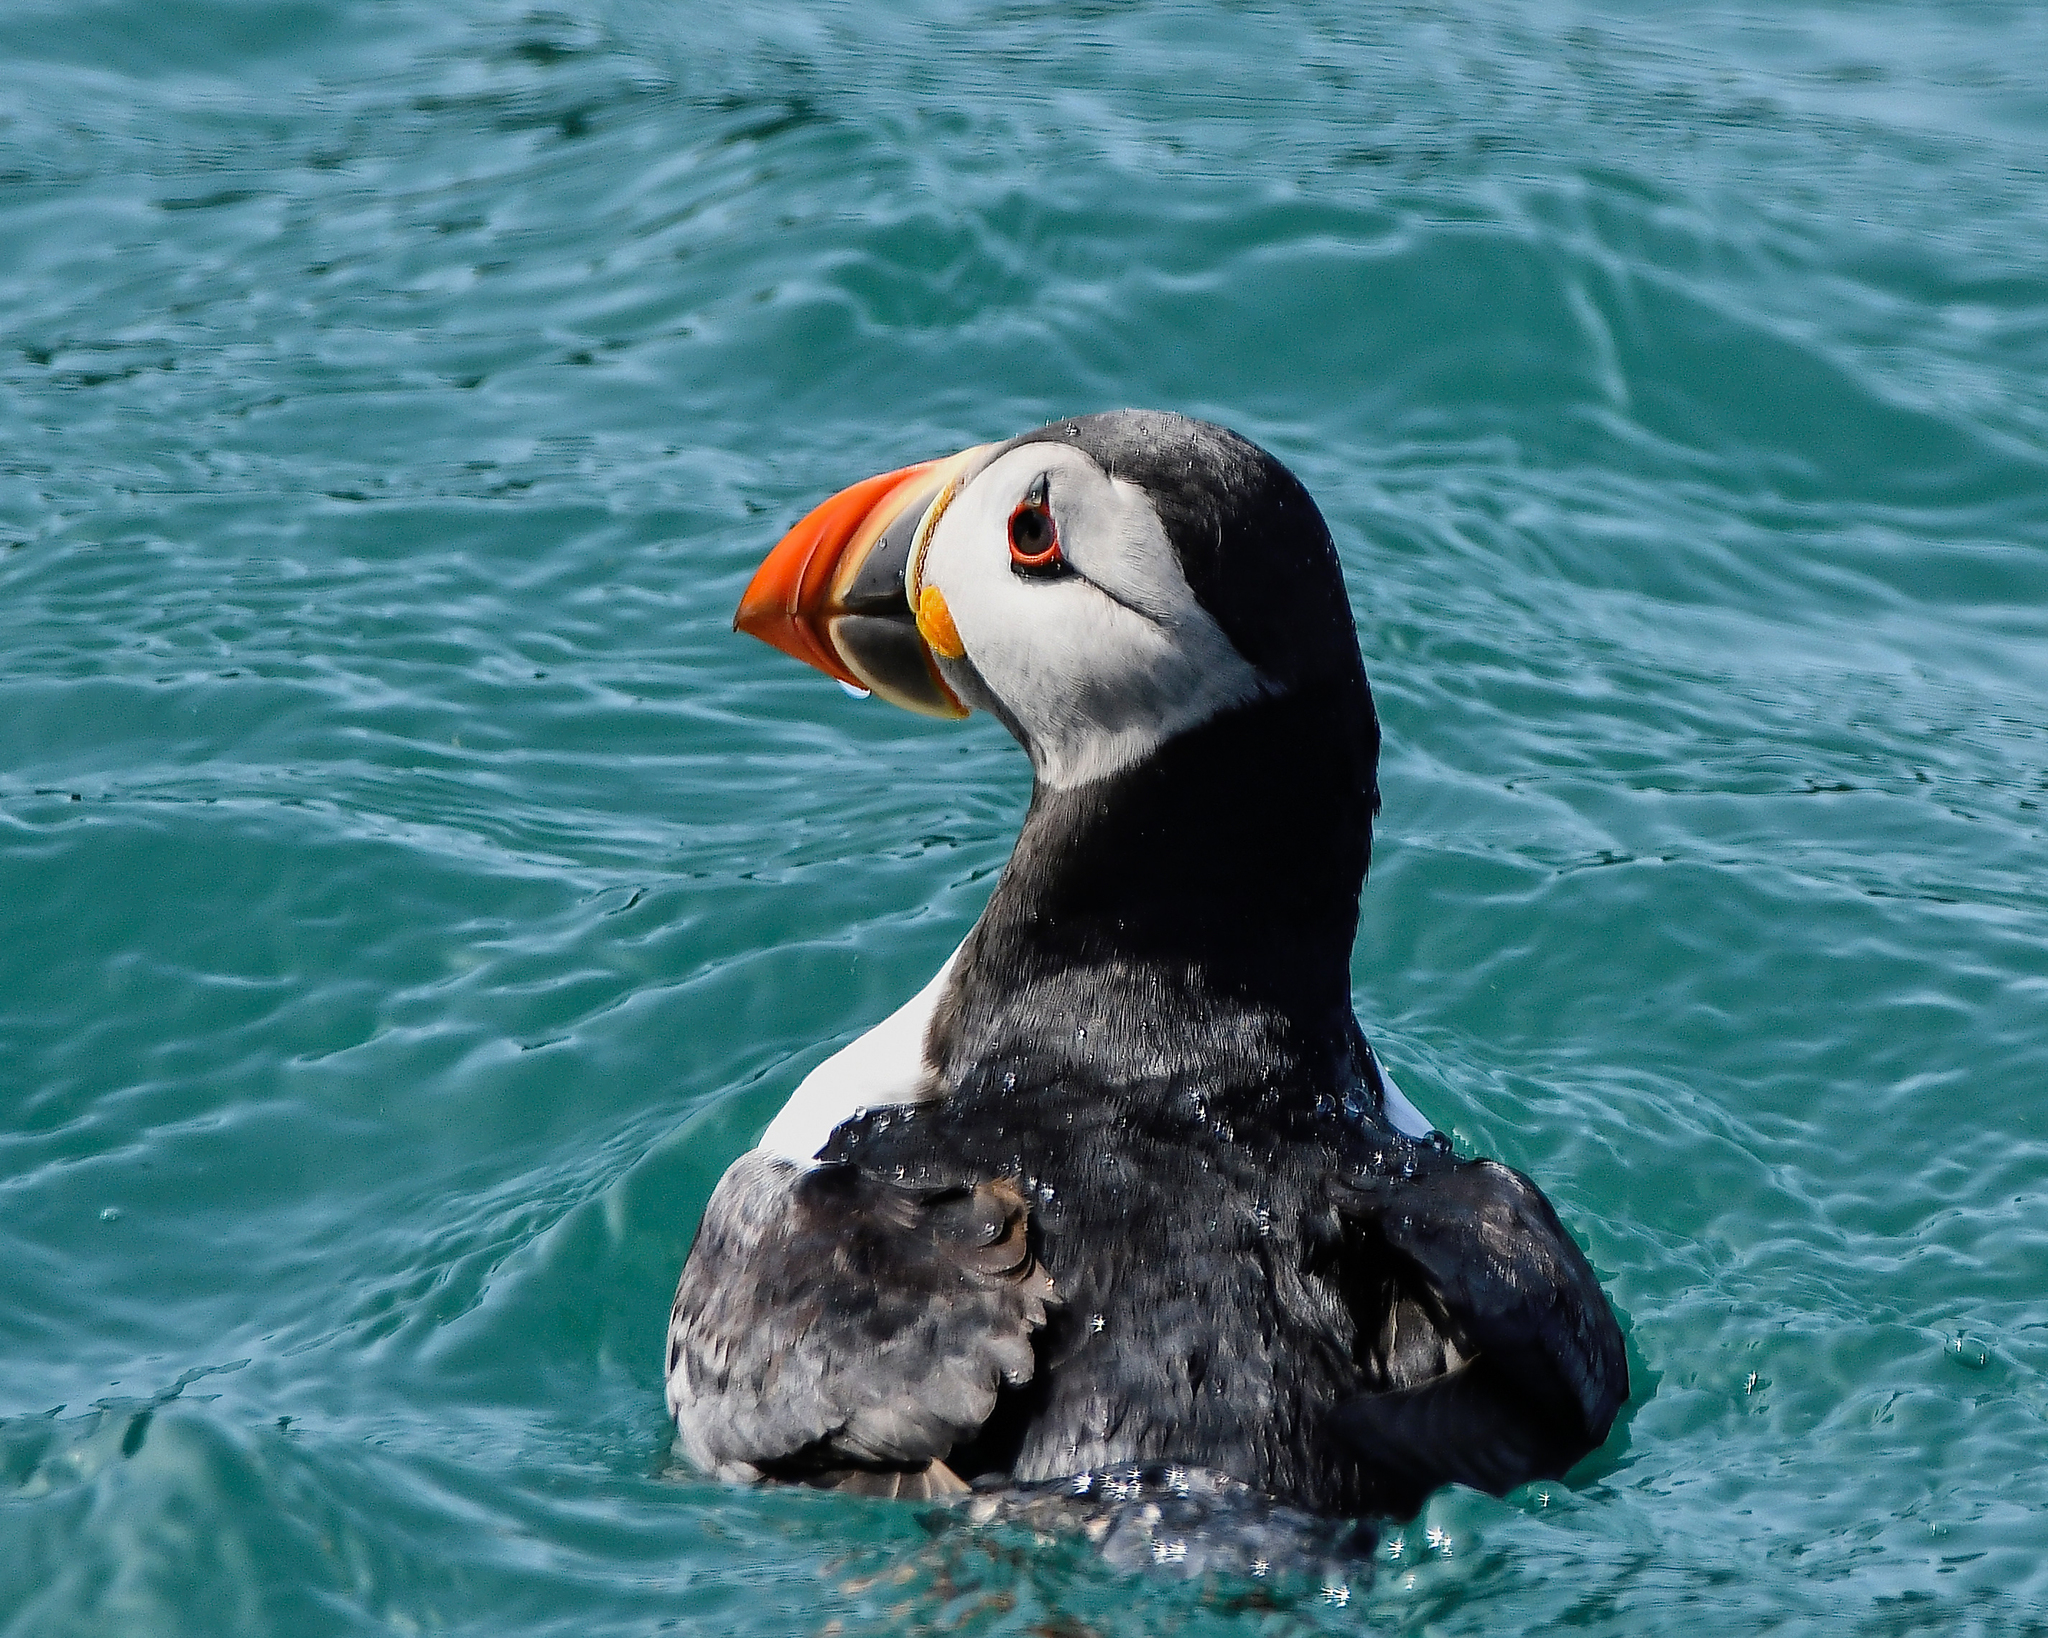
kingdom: Animalia
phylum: Chordata
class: Aves
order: Charadriiformes
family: Alcidae
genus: Fratercula
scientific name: Fratercula arctica
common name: Atlantic puffin
